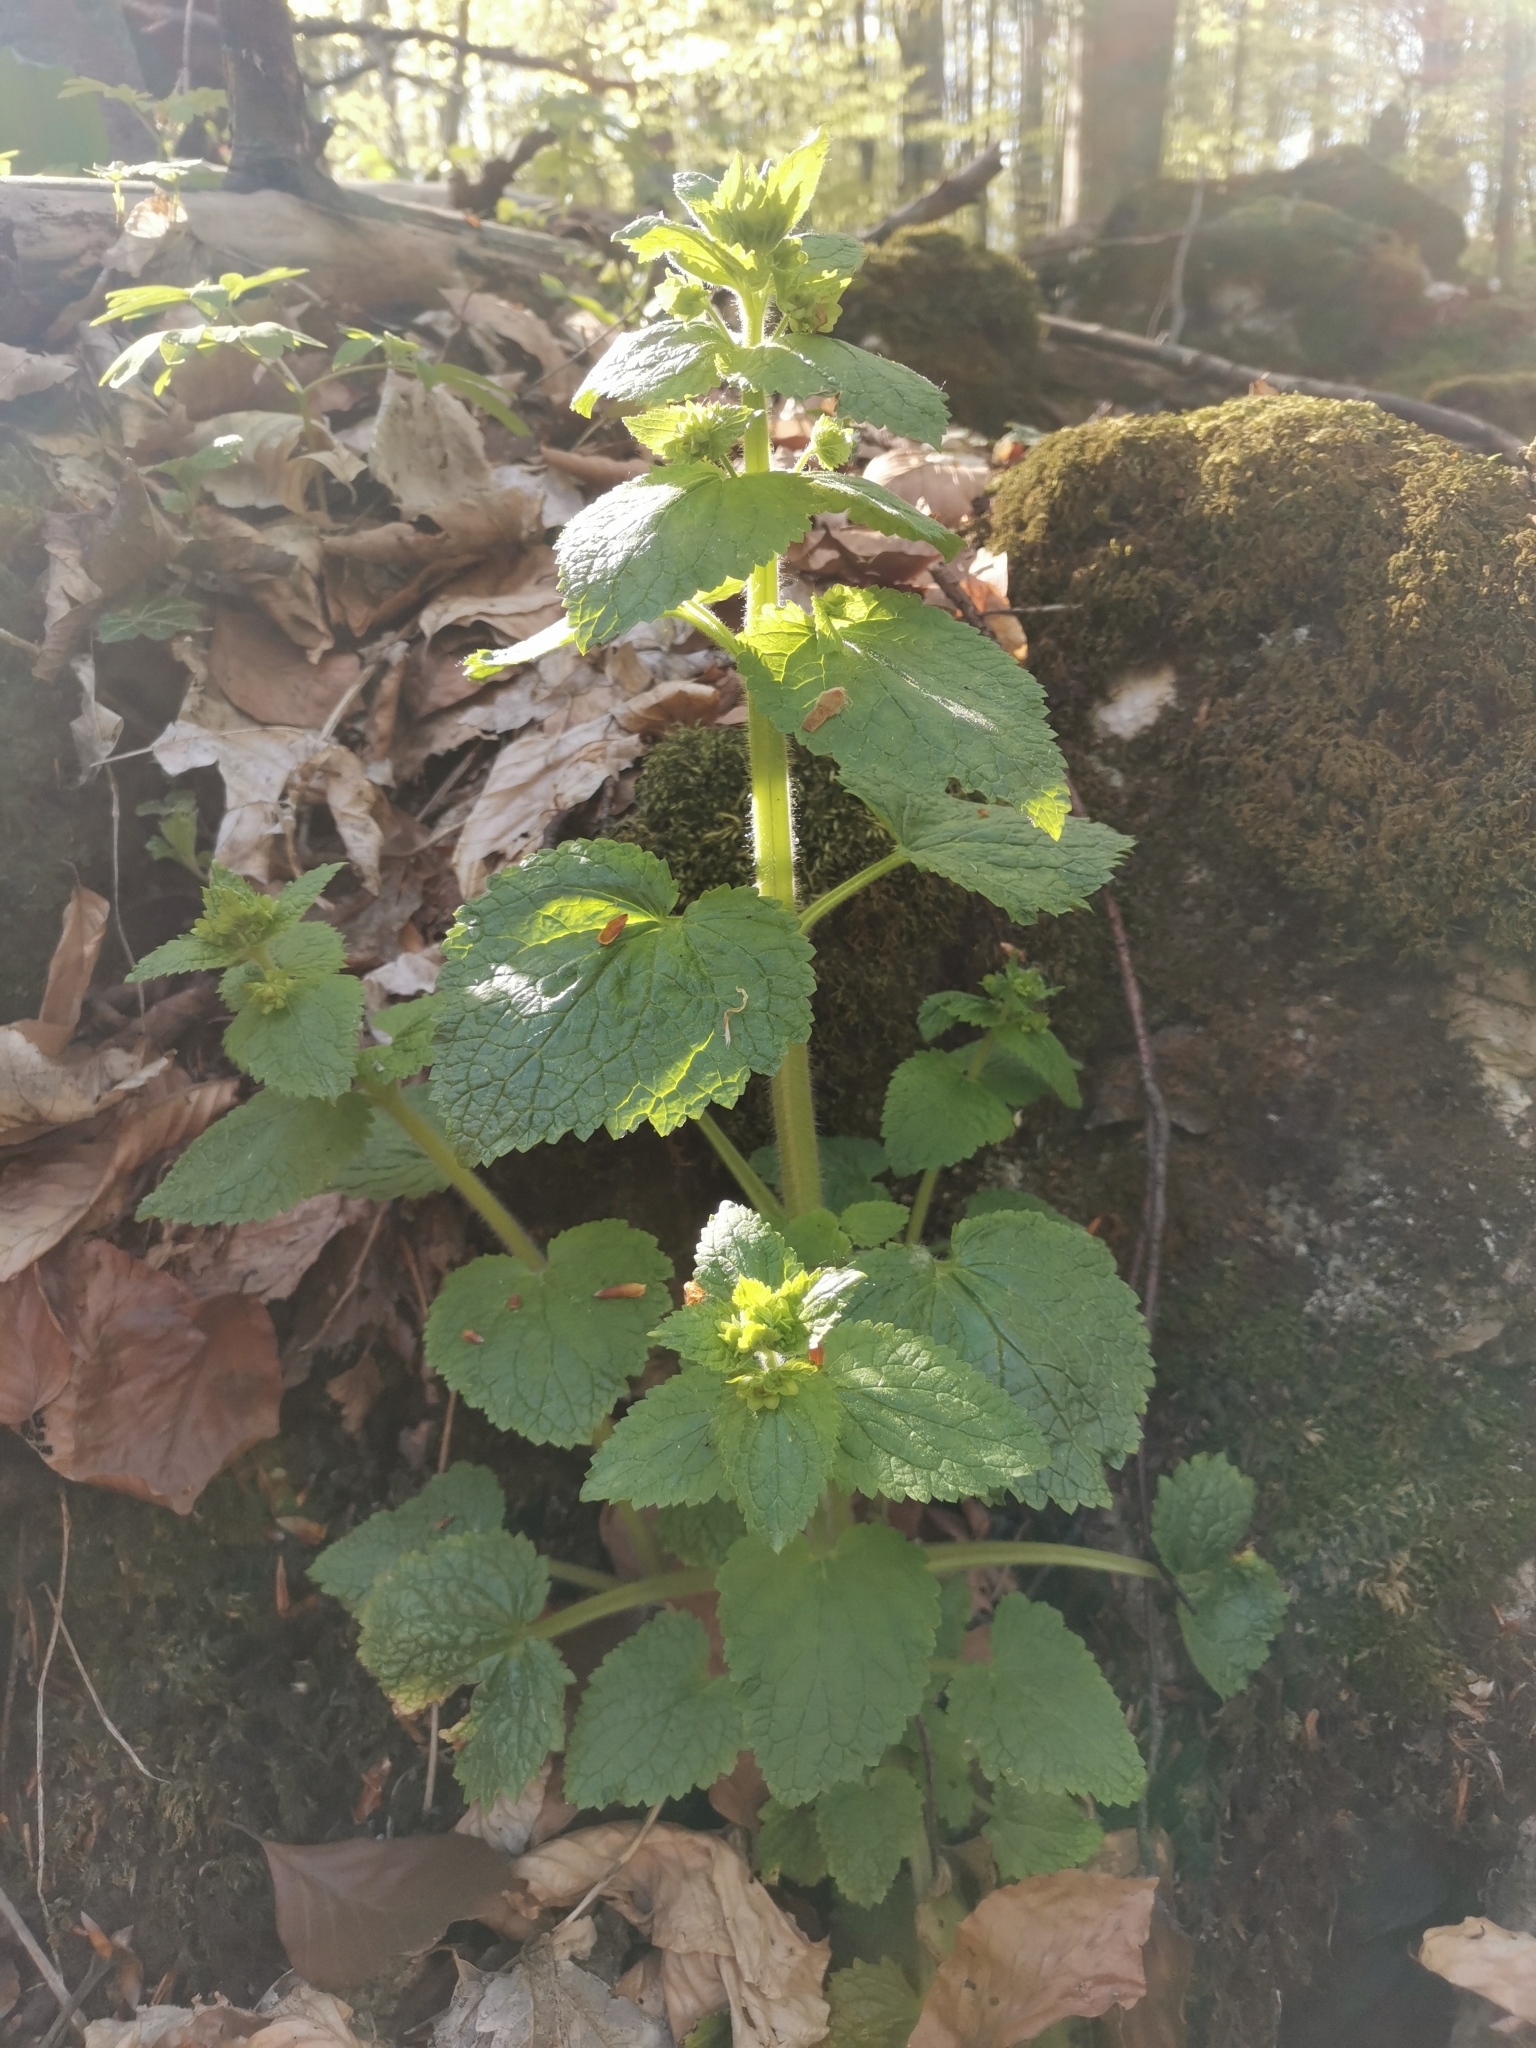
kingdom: Plantae
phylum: Tracheophyta
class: Magnoliopsida
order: Lamiales
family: Scrophulariaceae
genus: Scrophularia
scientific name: Scrophularia vernalis
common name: Yellow figwort
